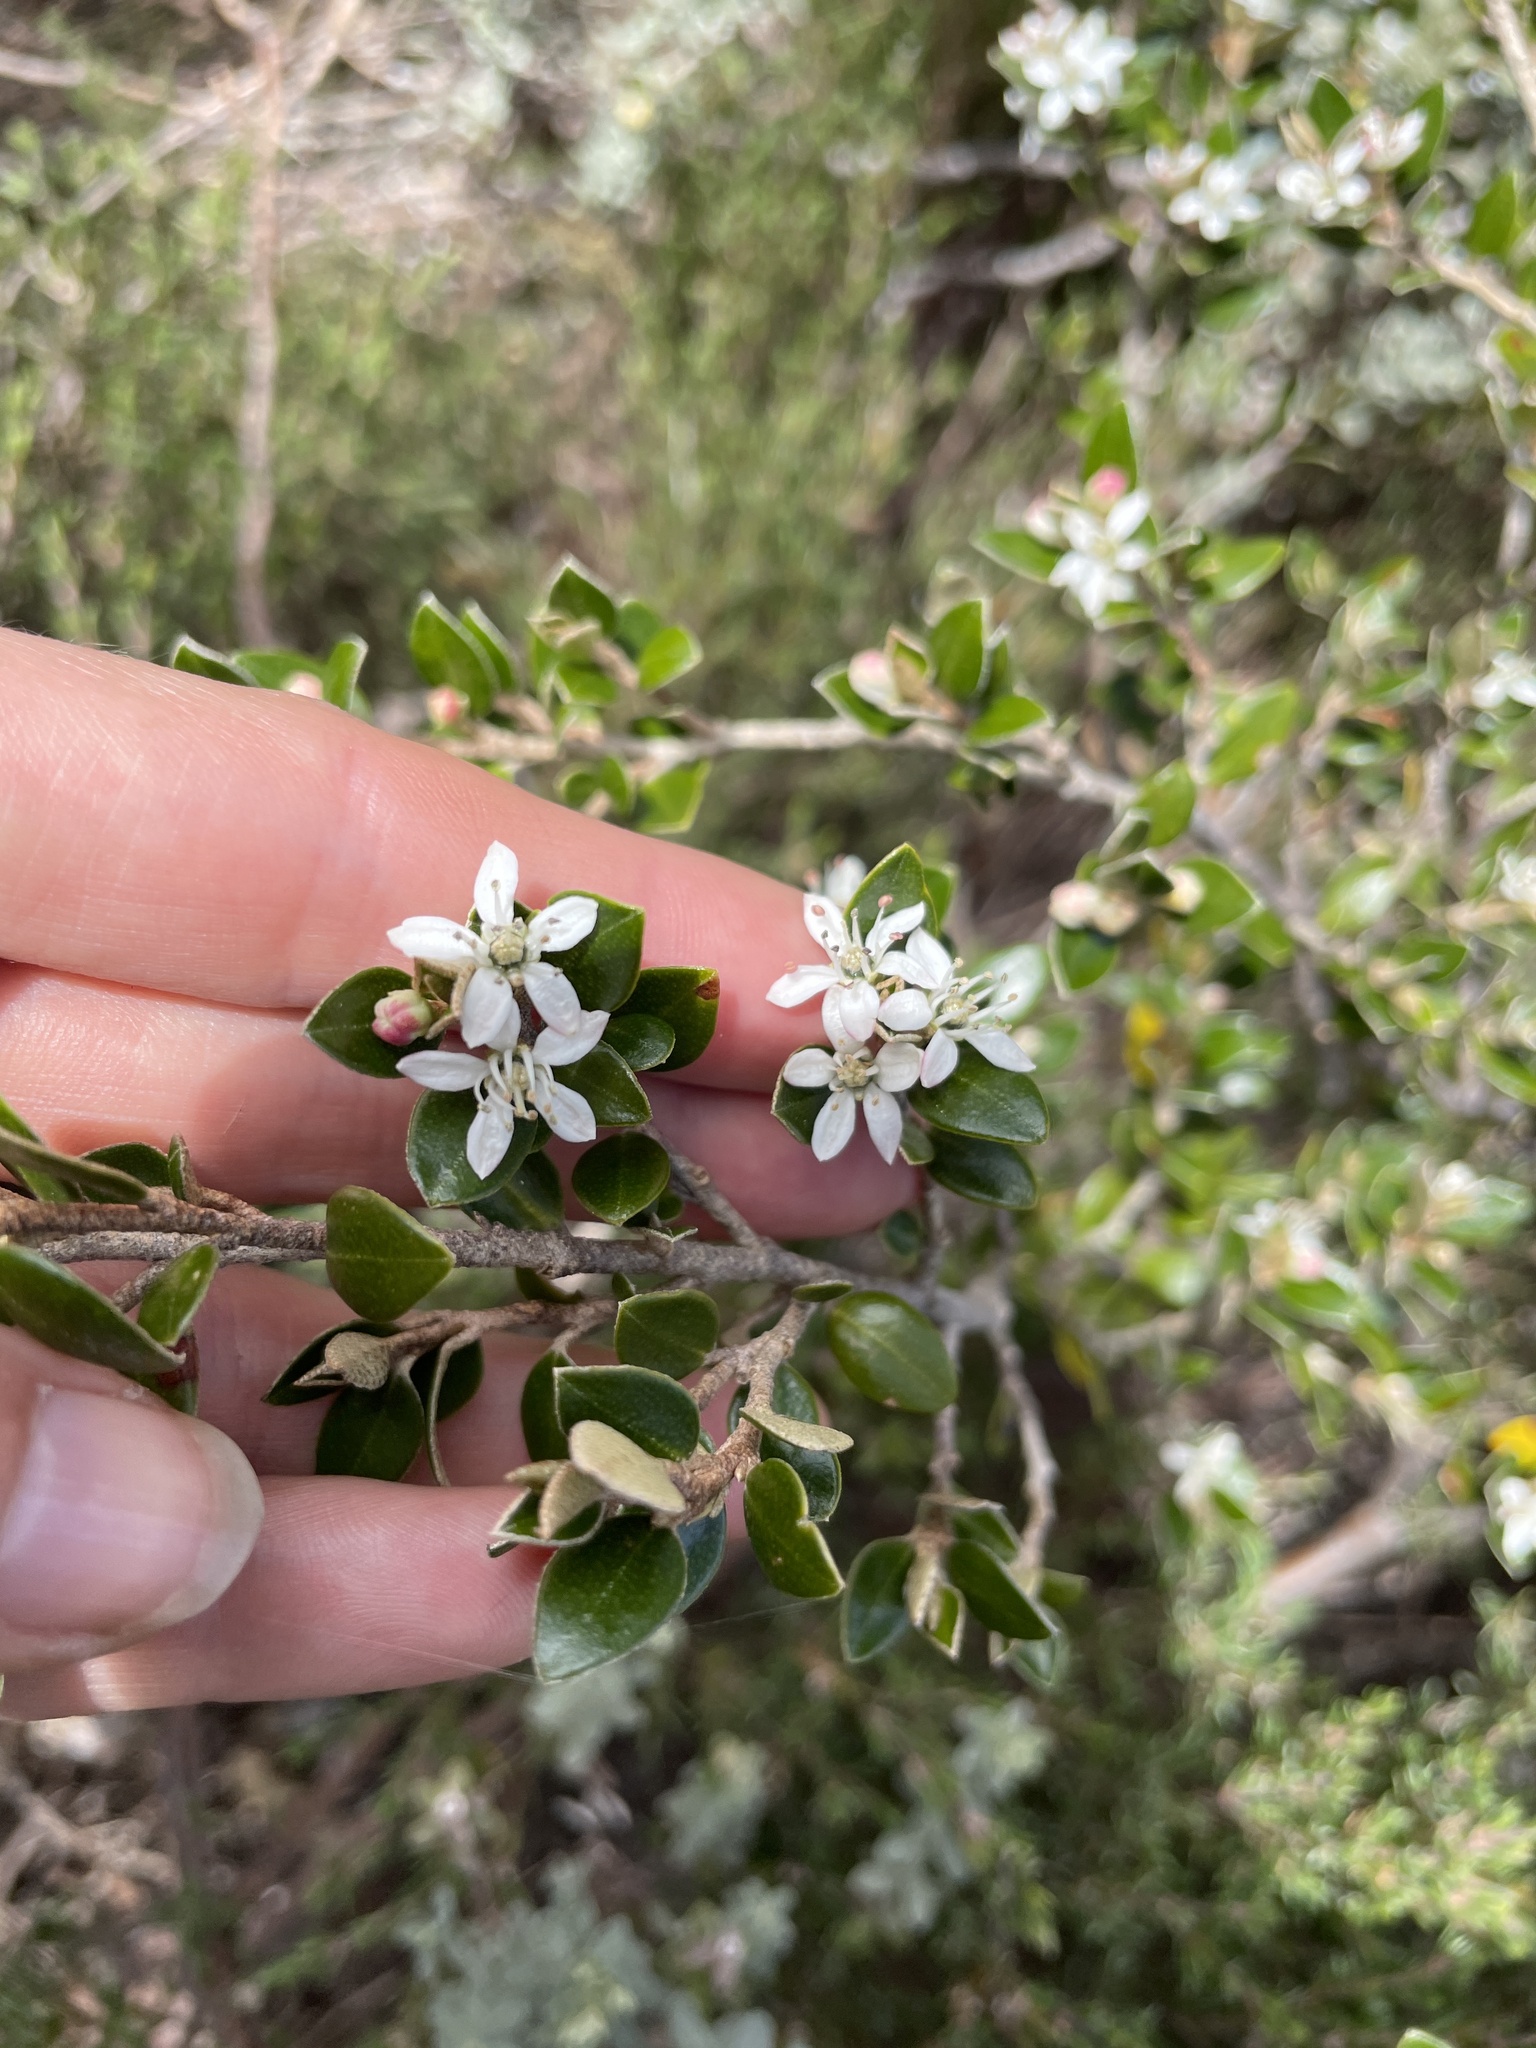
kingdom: Plantae
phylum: Tracheophyta
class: Magnoliopsida
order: Sapindales
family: Rutaceae
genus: Nematolepis
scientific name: Nematolepis ovatifolia
